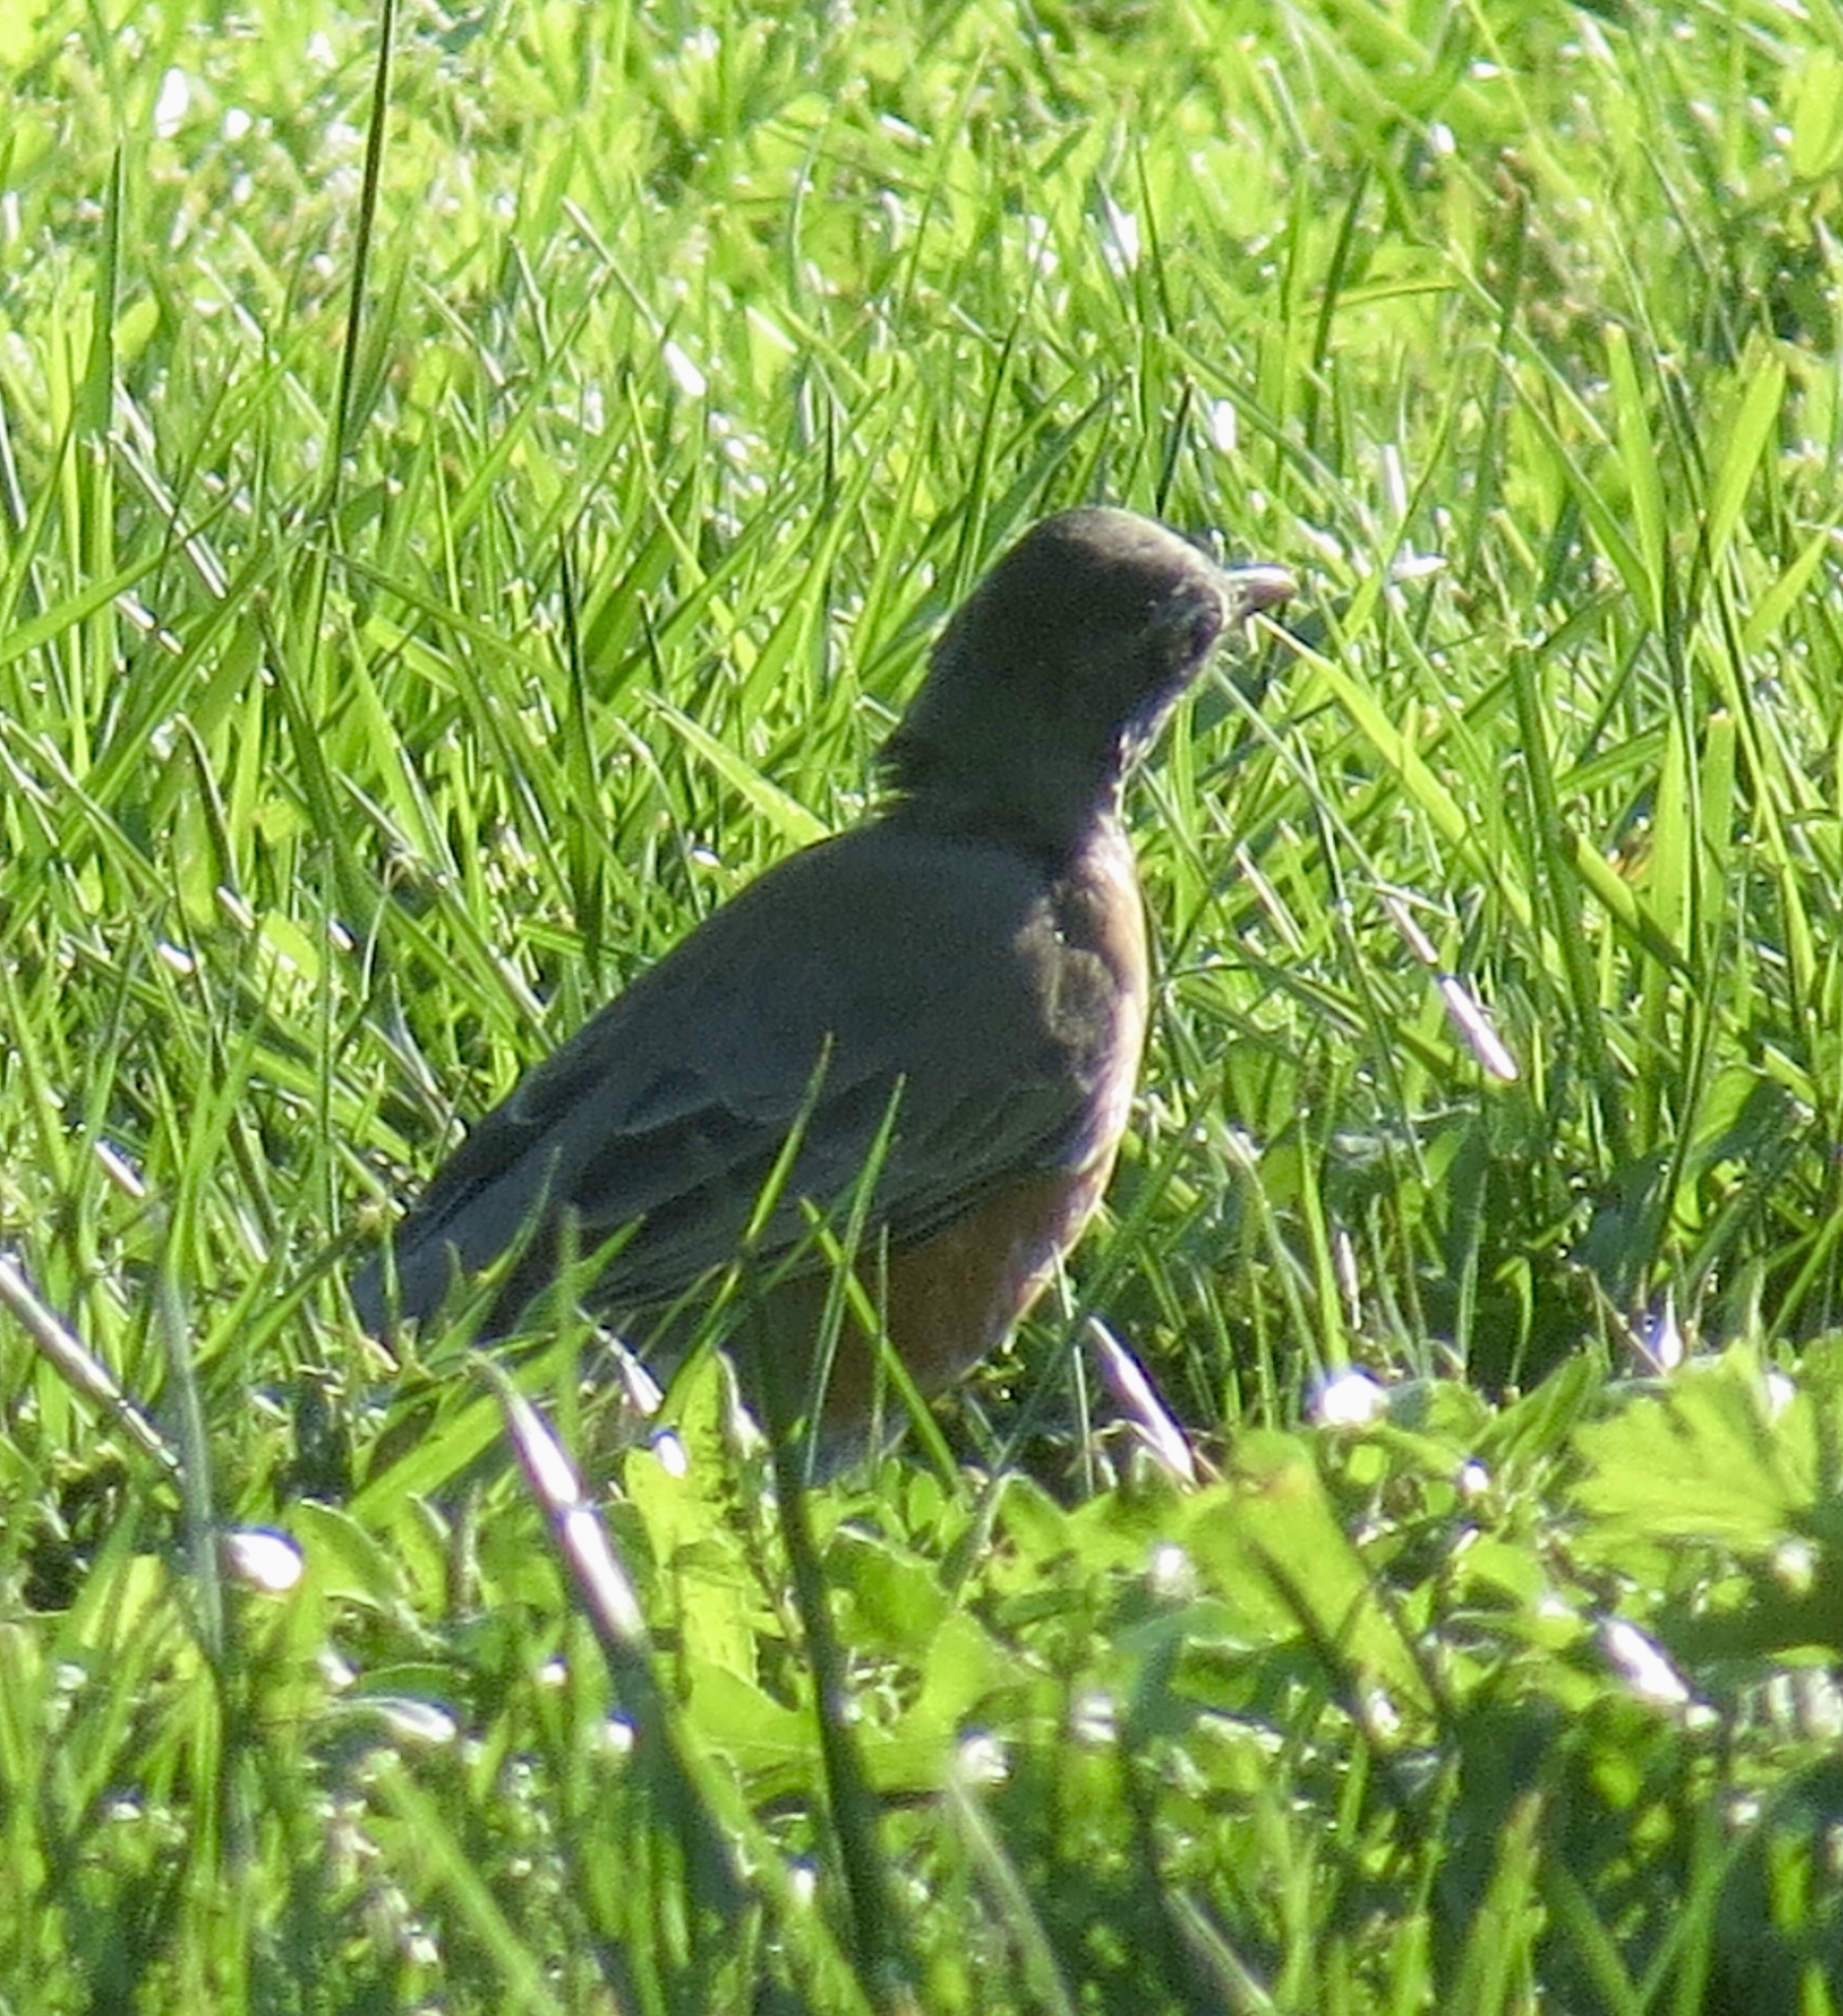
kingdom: Animalia
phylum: Chordata
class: Aves
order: Passeriformes
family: Turdidae
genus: Turdus
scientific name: Turdus migratorius
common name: American robin
